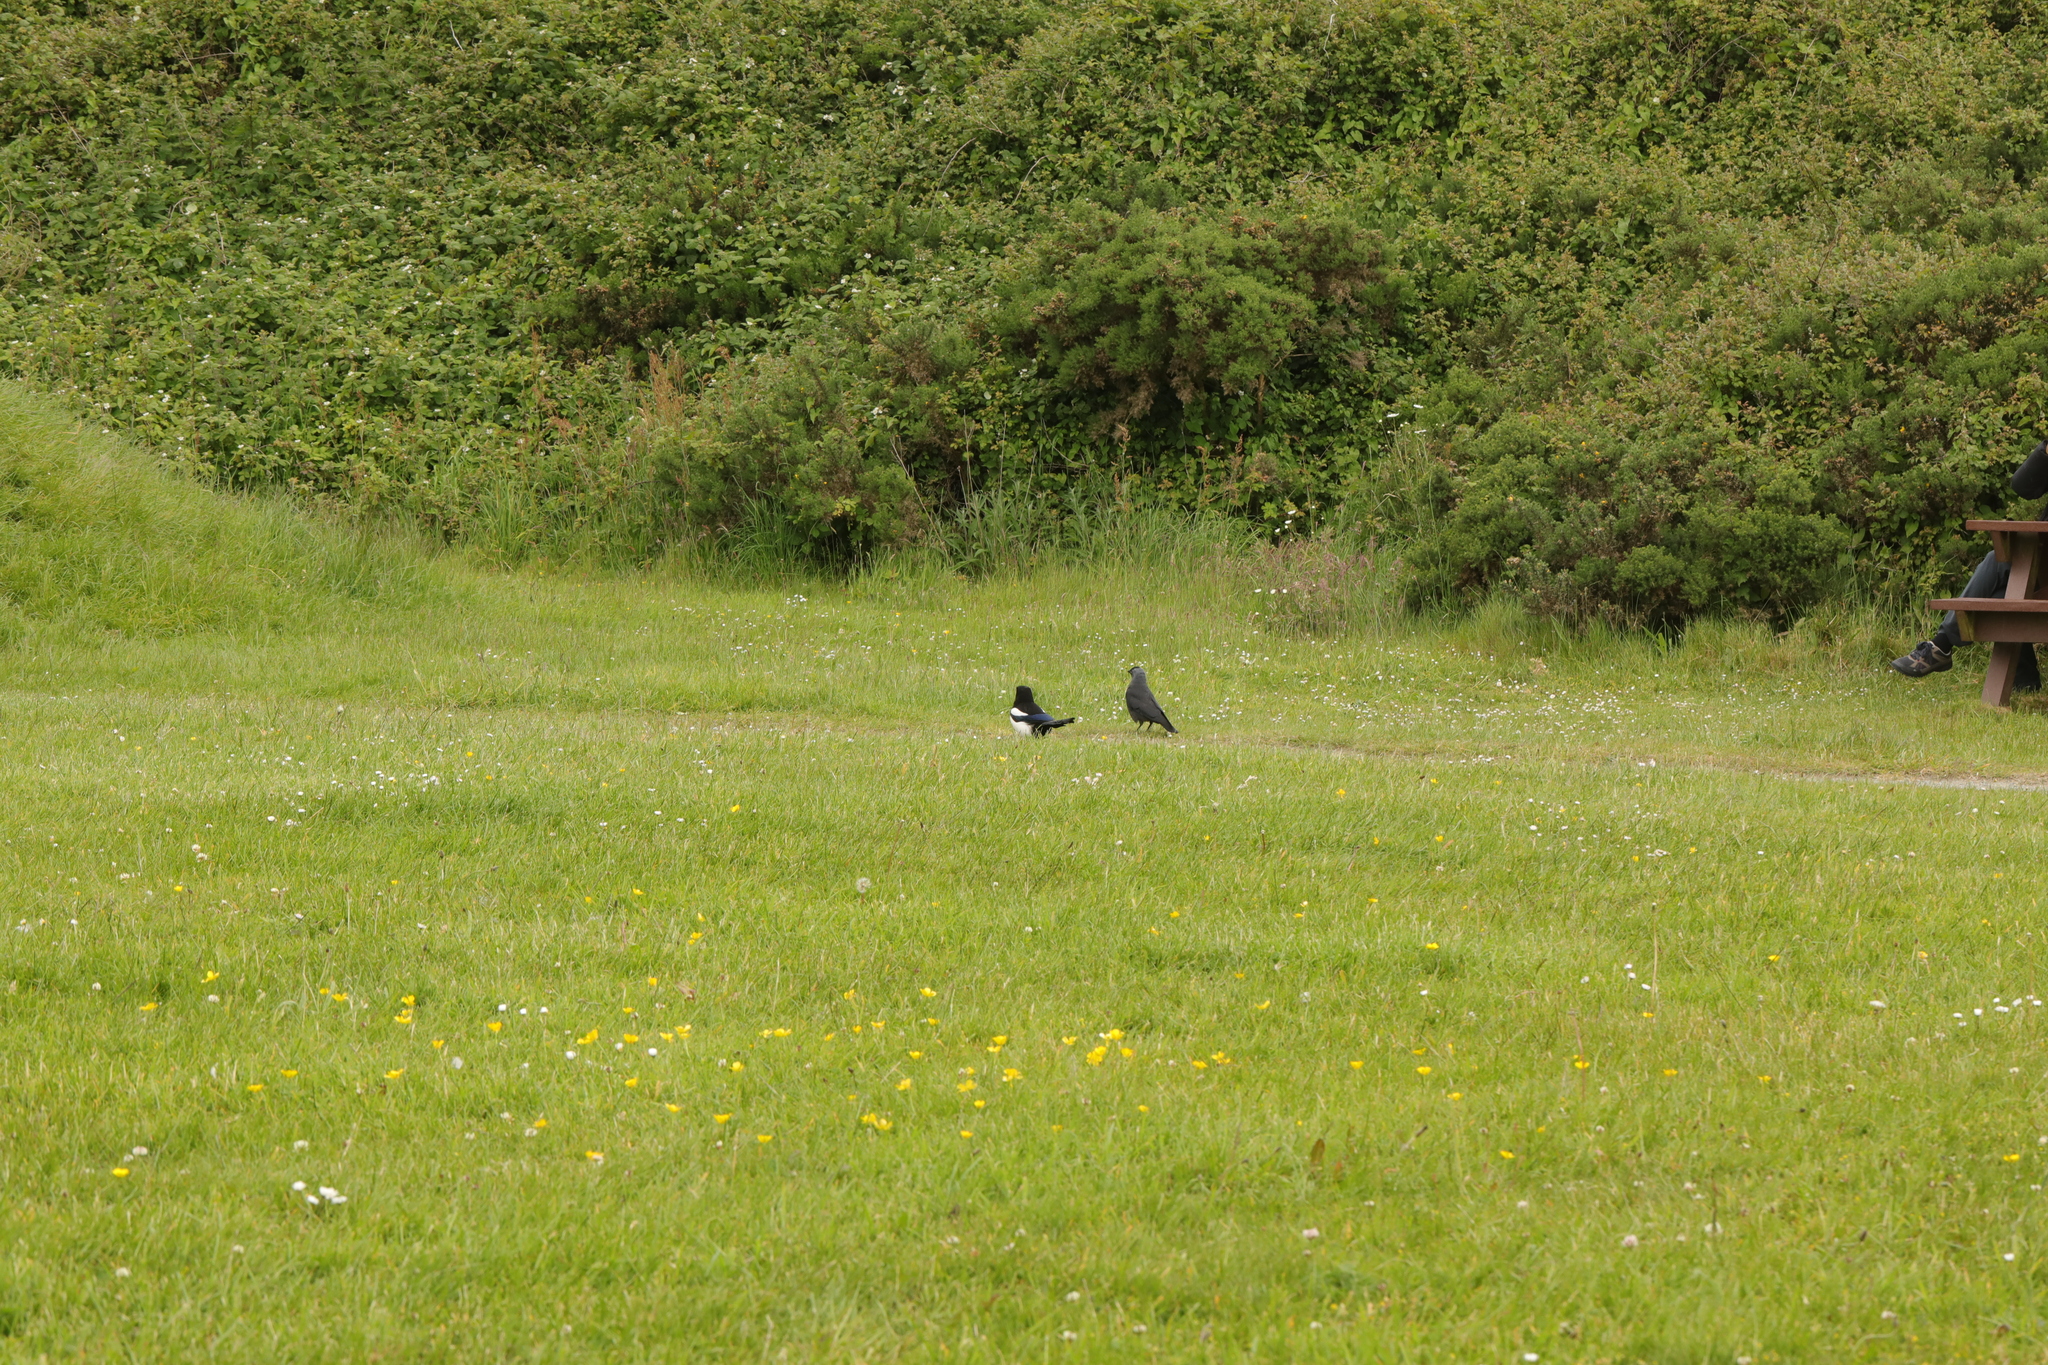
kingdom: Animalia
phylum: Chordata
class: Aves
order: Passeriformes
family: Corvidae
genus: Pica
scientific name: Pica pica
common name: Eurasian magpie
